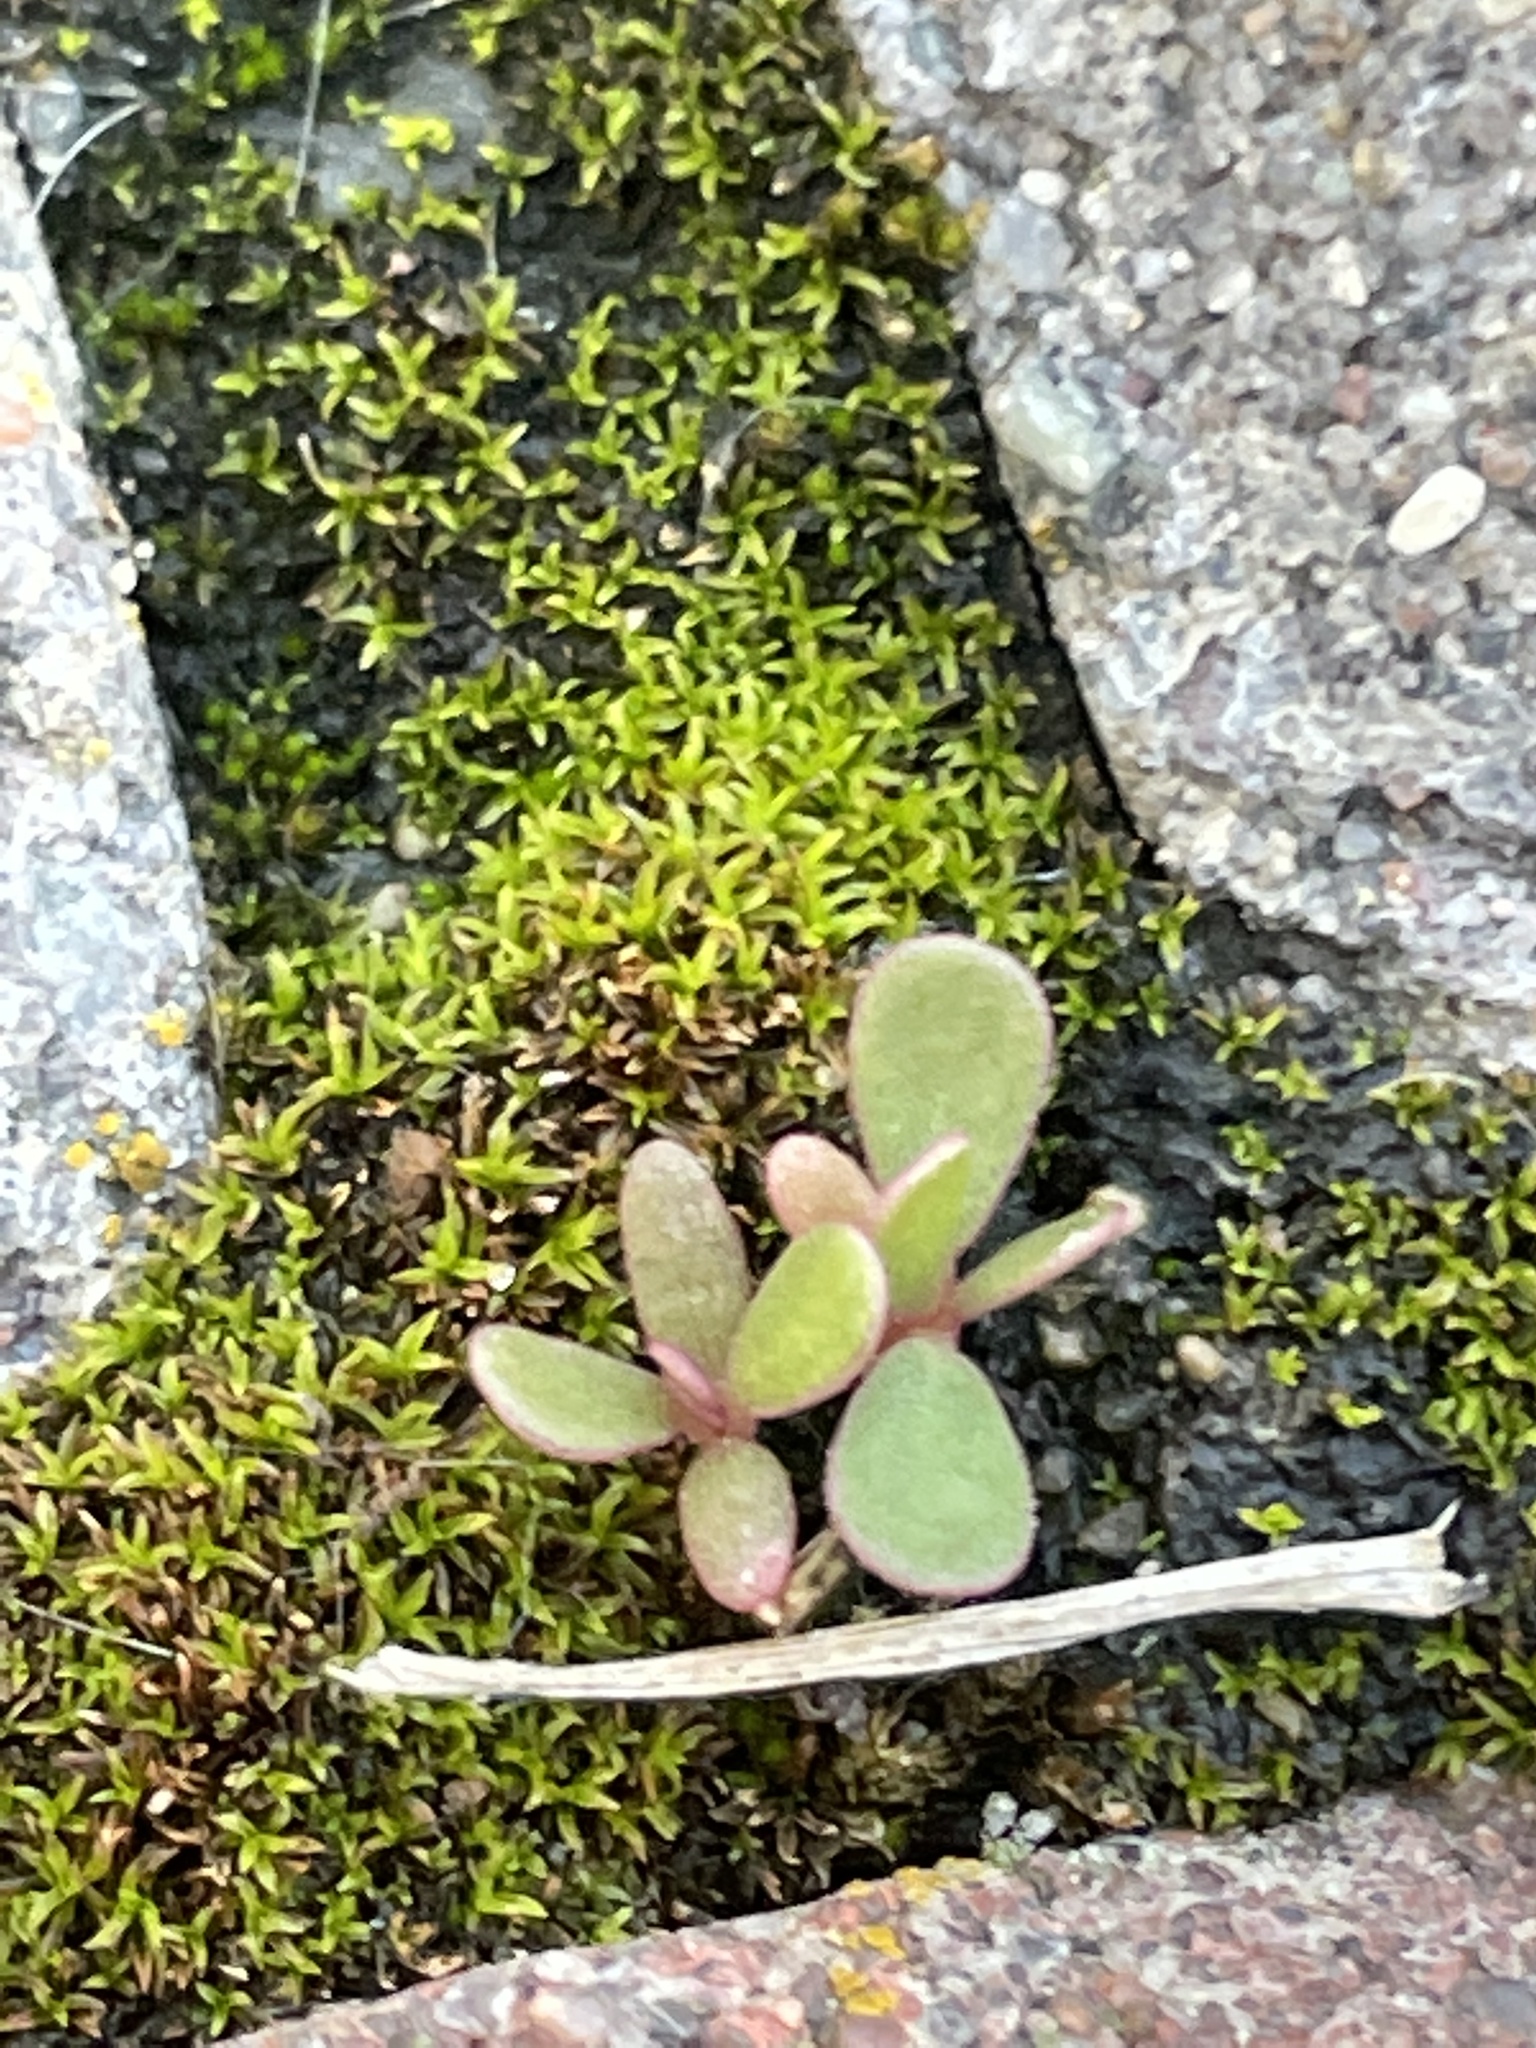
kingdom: Plantae
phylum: Tracheophyta
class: Magnoliopsida
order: Caryophyllales
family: Portulacaceae
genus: Portulaca
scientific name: Portulaca oleracea
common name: Common purslane
